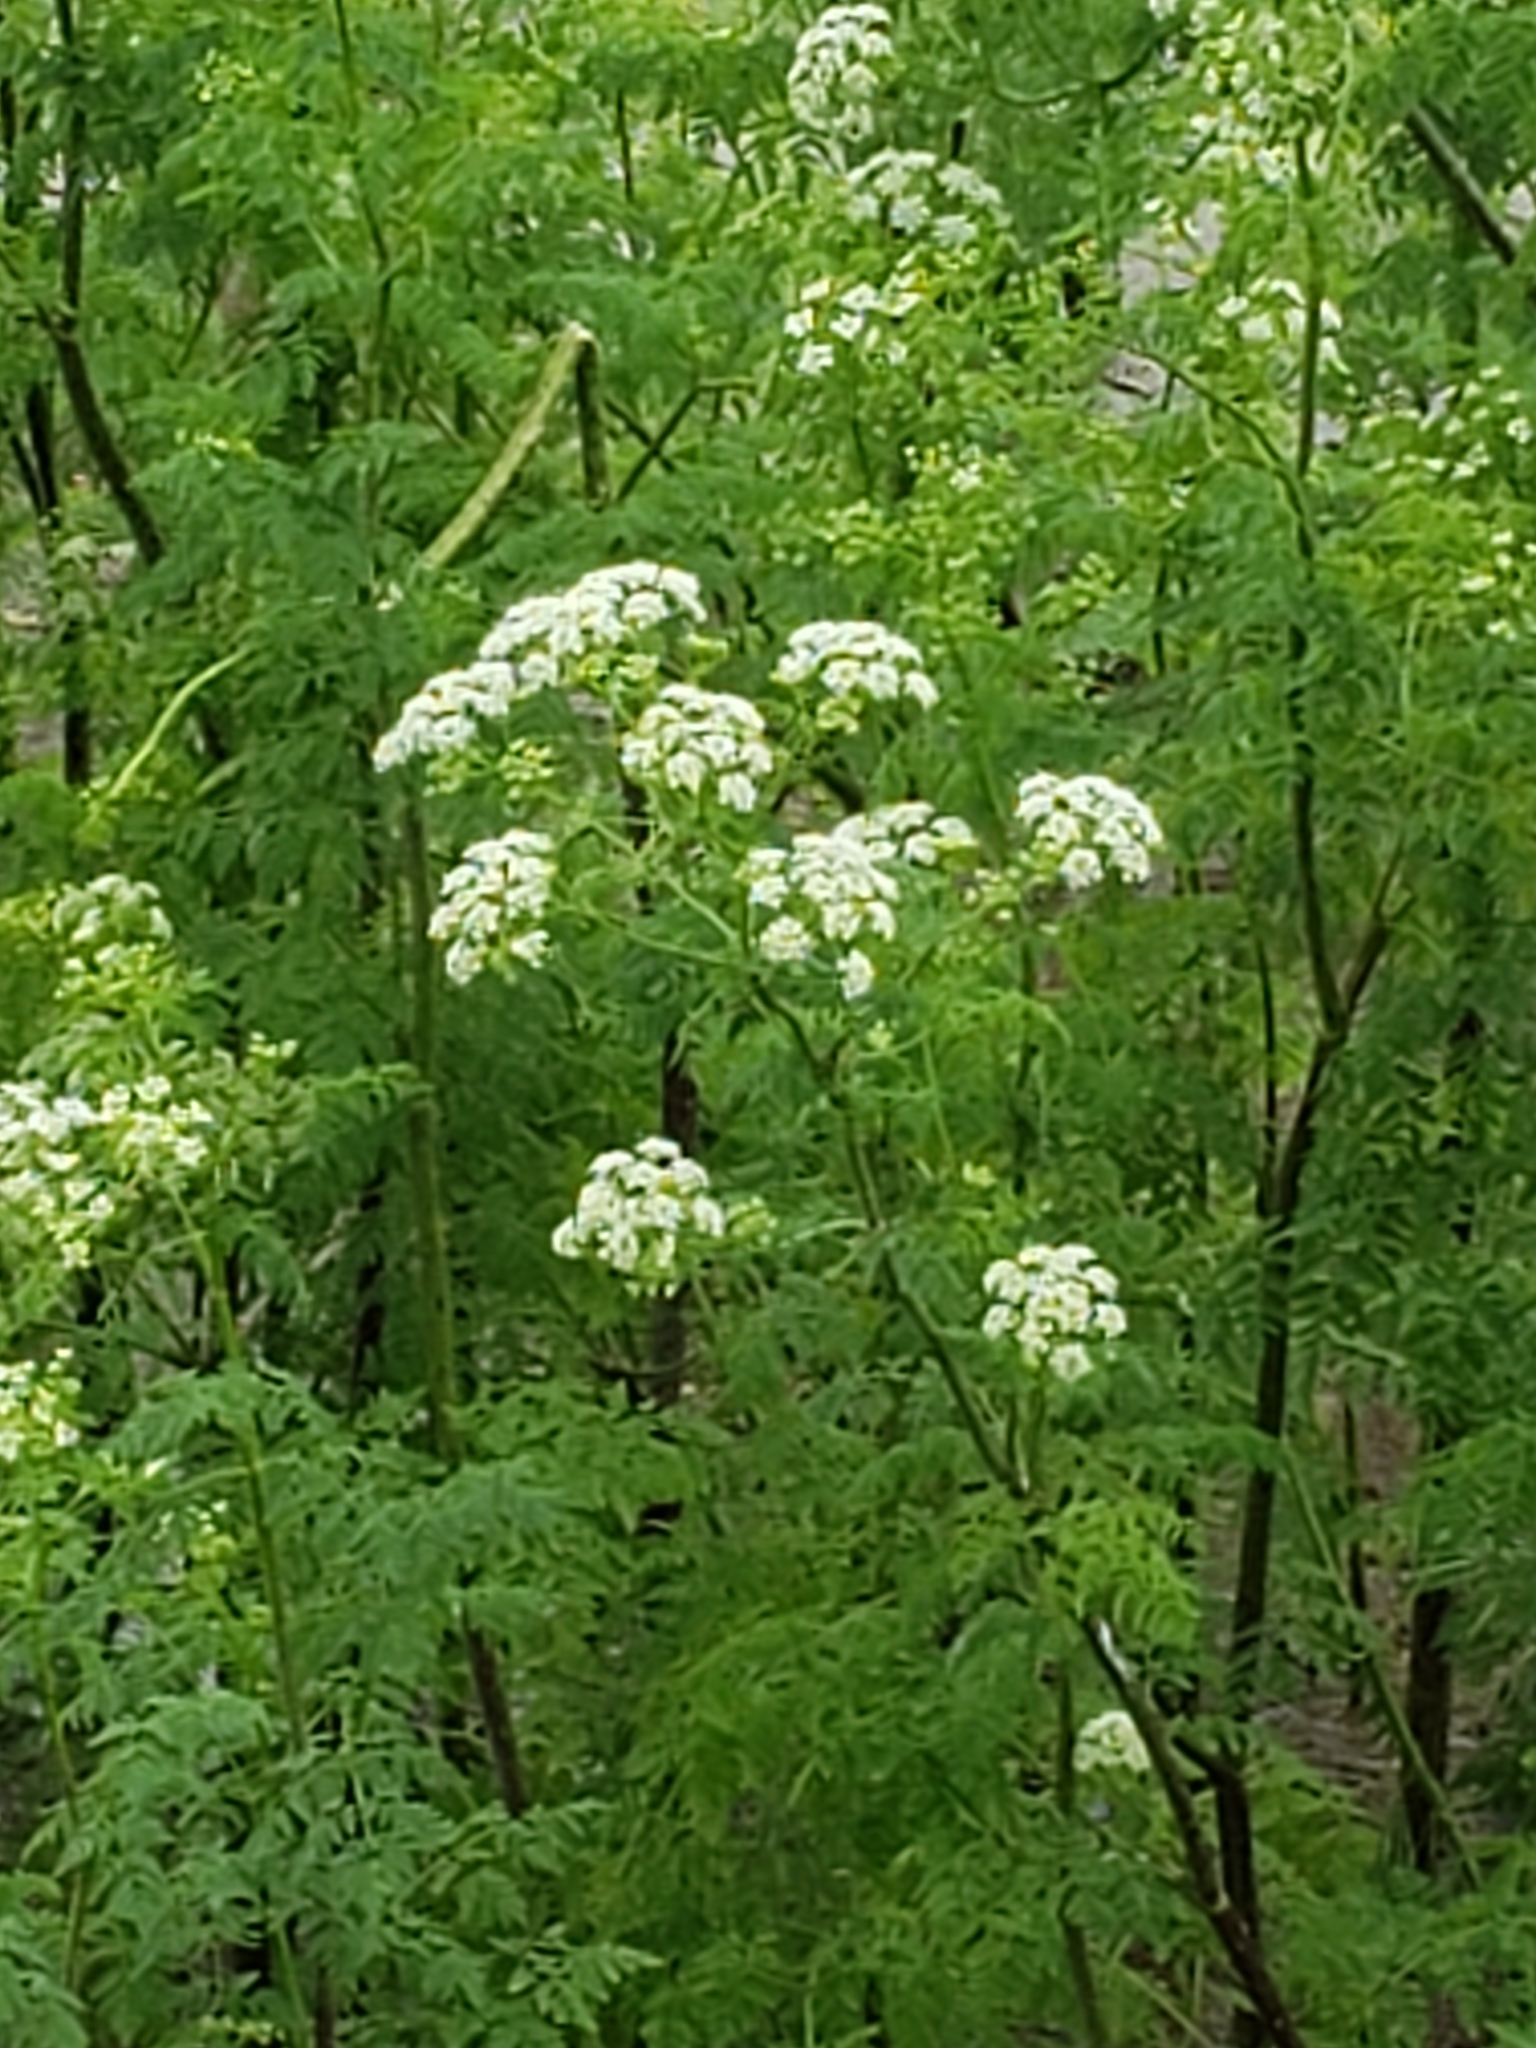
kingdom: Plantae
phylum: Tracheophyta
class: Magnoliopsida
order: Apiales
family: Apiaceae
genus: Conium
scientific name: Conium maculatum
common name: Hemlock
